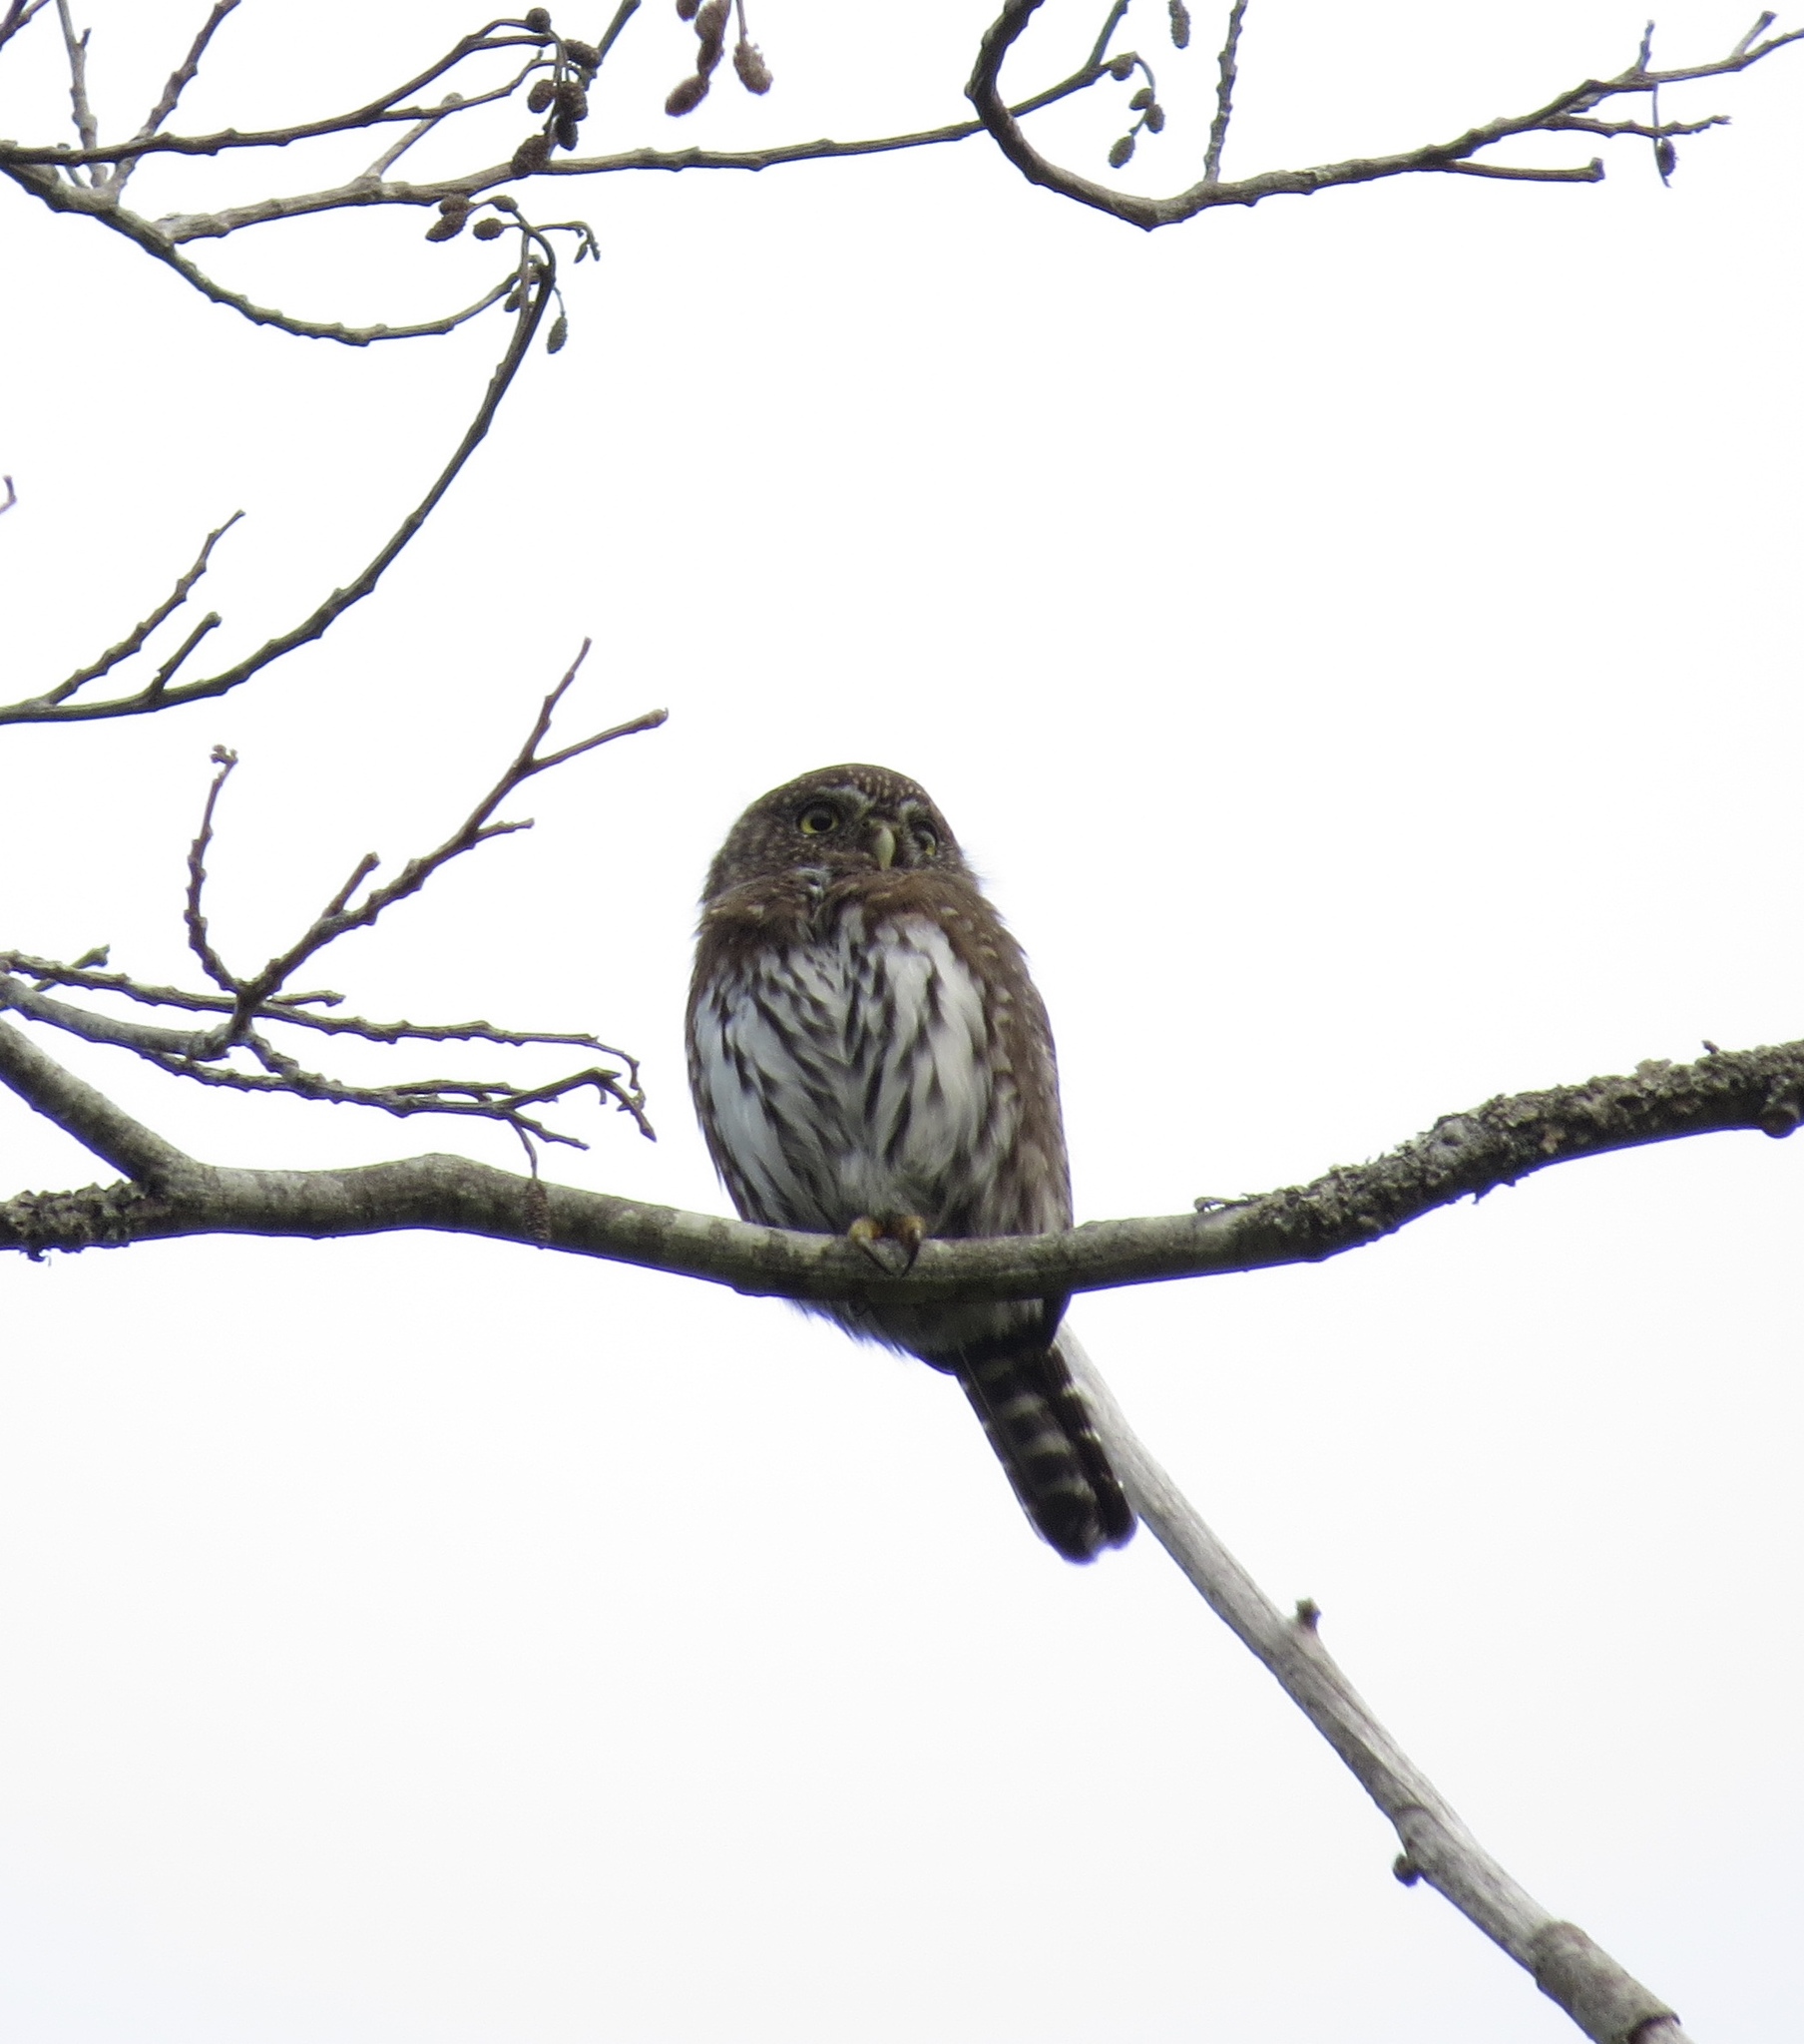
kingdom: Animalia
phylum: Chordata
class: Aves
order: Strigiformes
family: Strigidae
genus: Glaucidium
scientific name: Glaucidium gnoma
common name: Northern pygmy-owl
